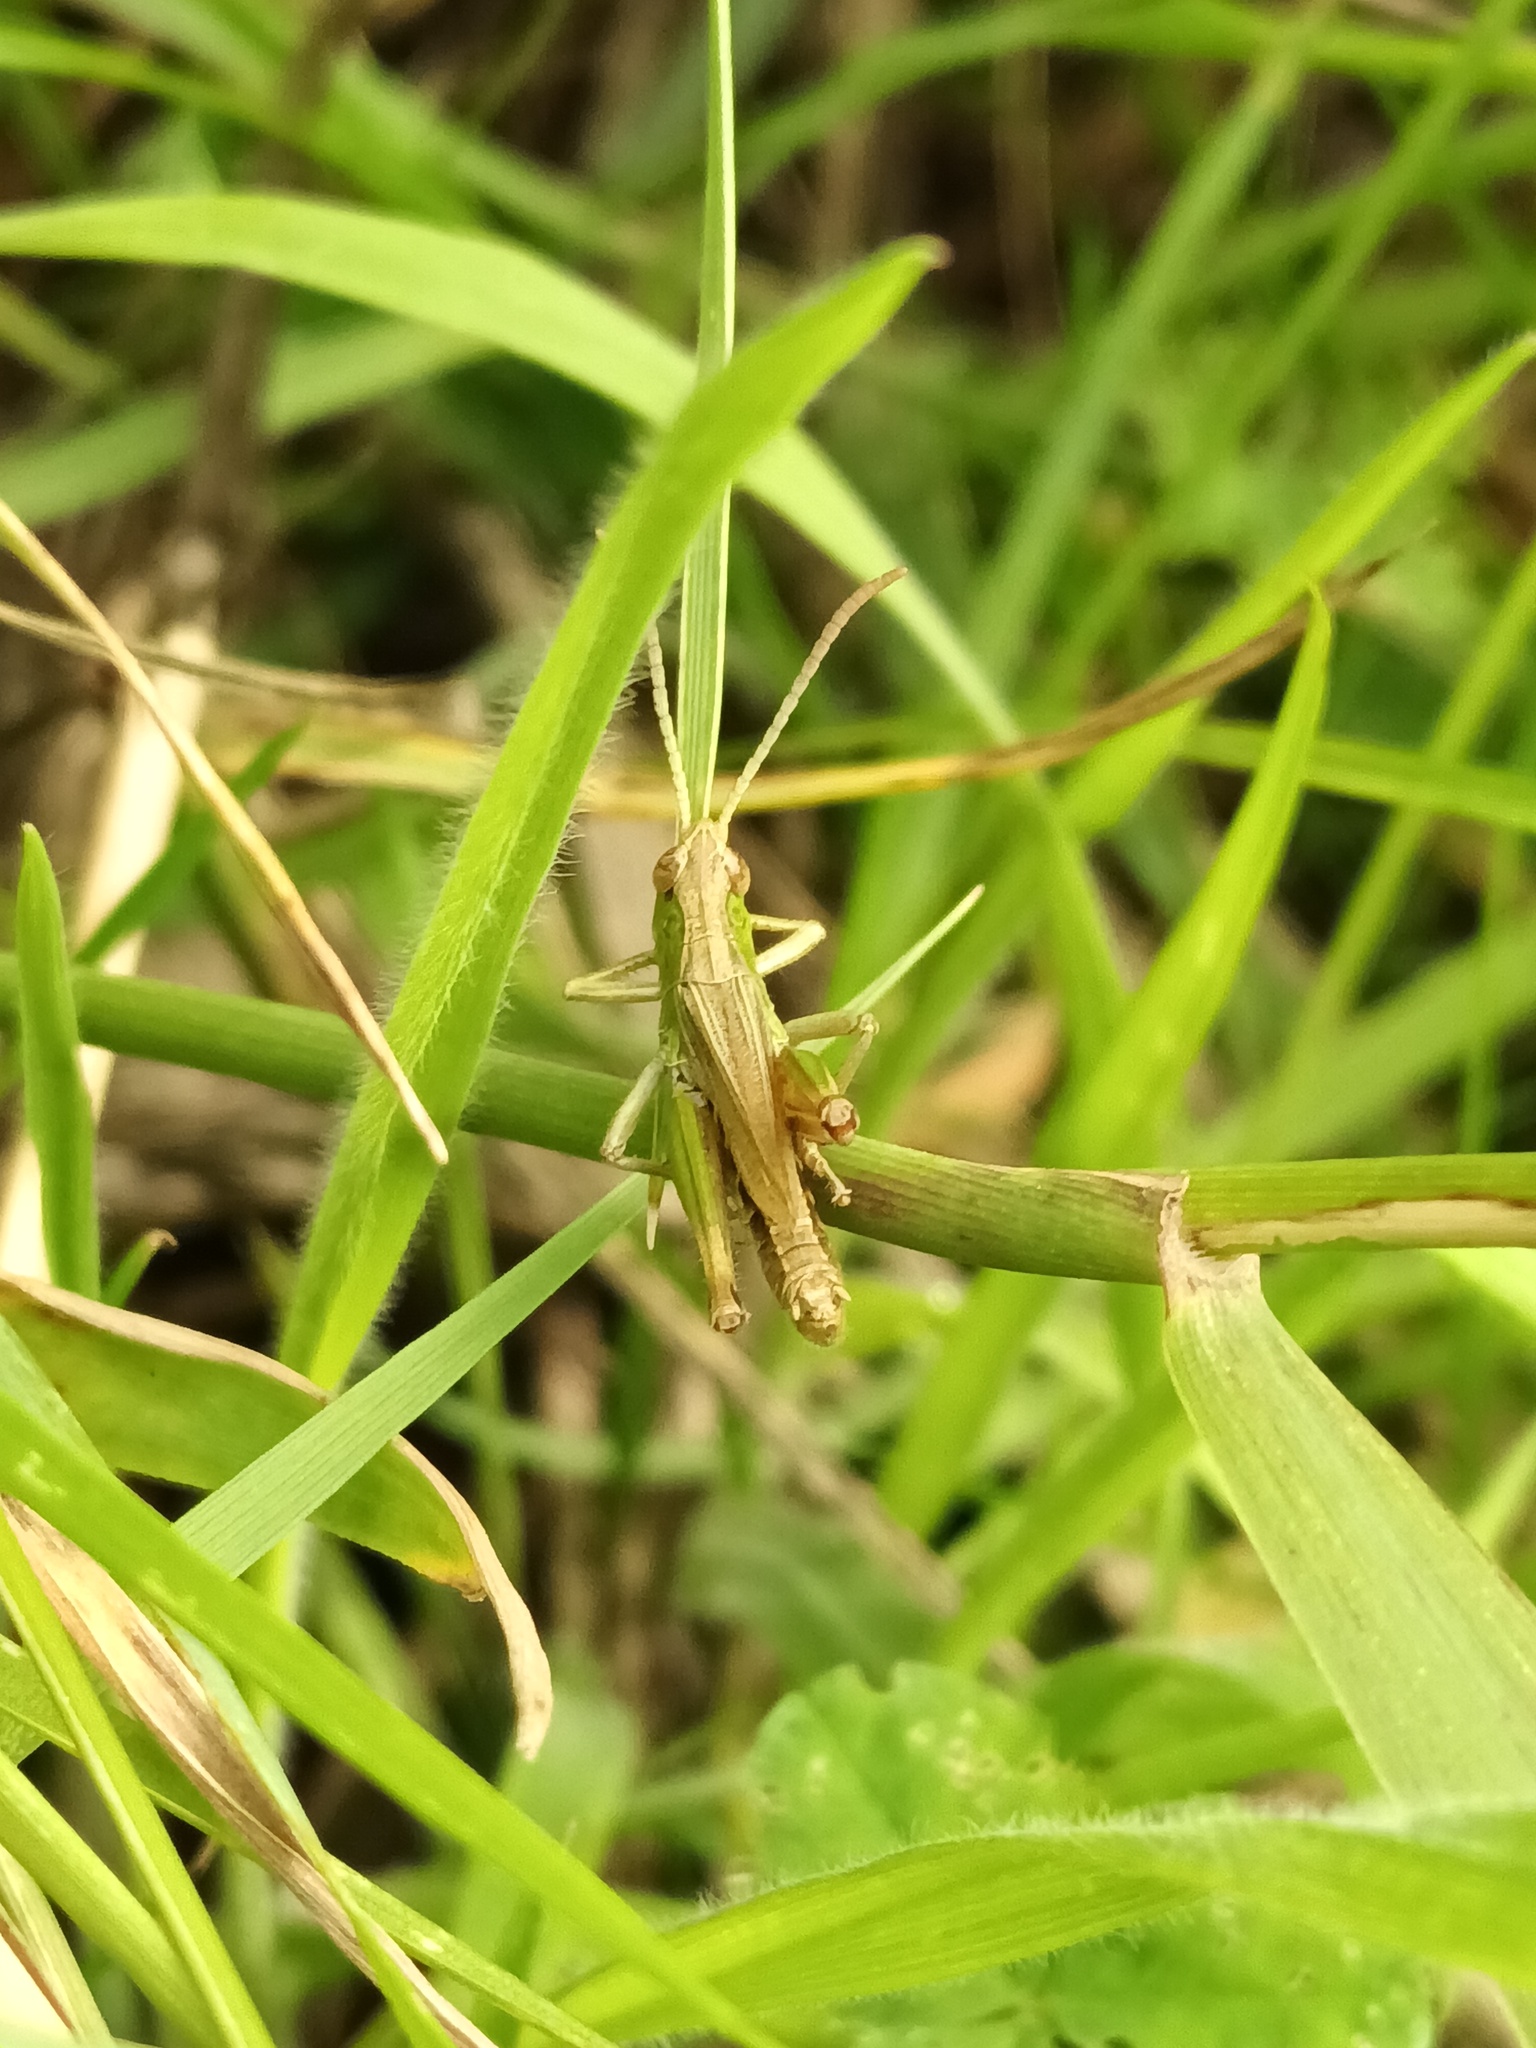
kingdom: Animalia
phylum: Arthropoda
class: Insecta
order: Orthoptera
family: Acrididae
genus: Pseudochorthippus
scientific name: Pseudochorthippus parallelus
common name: Meadow grasshopper
